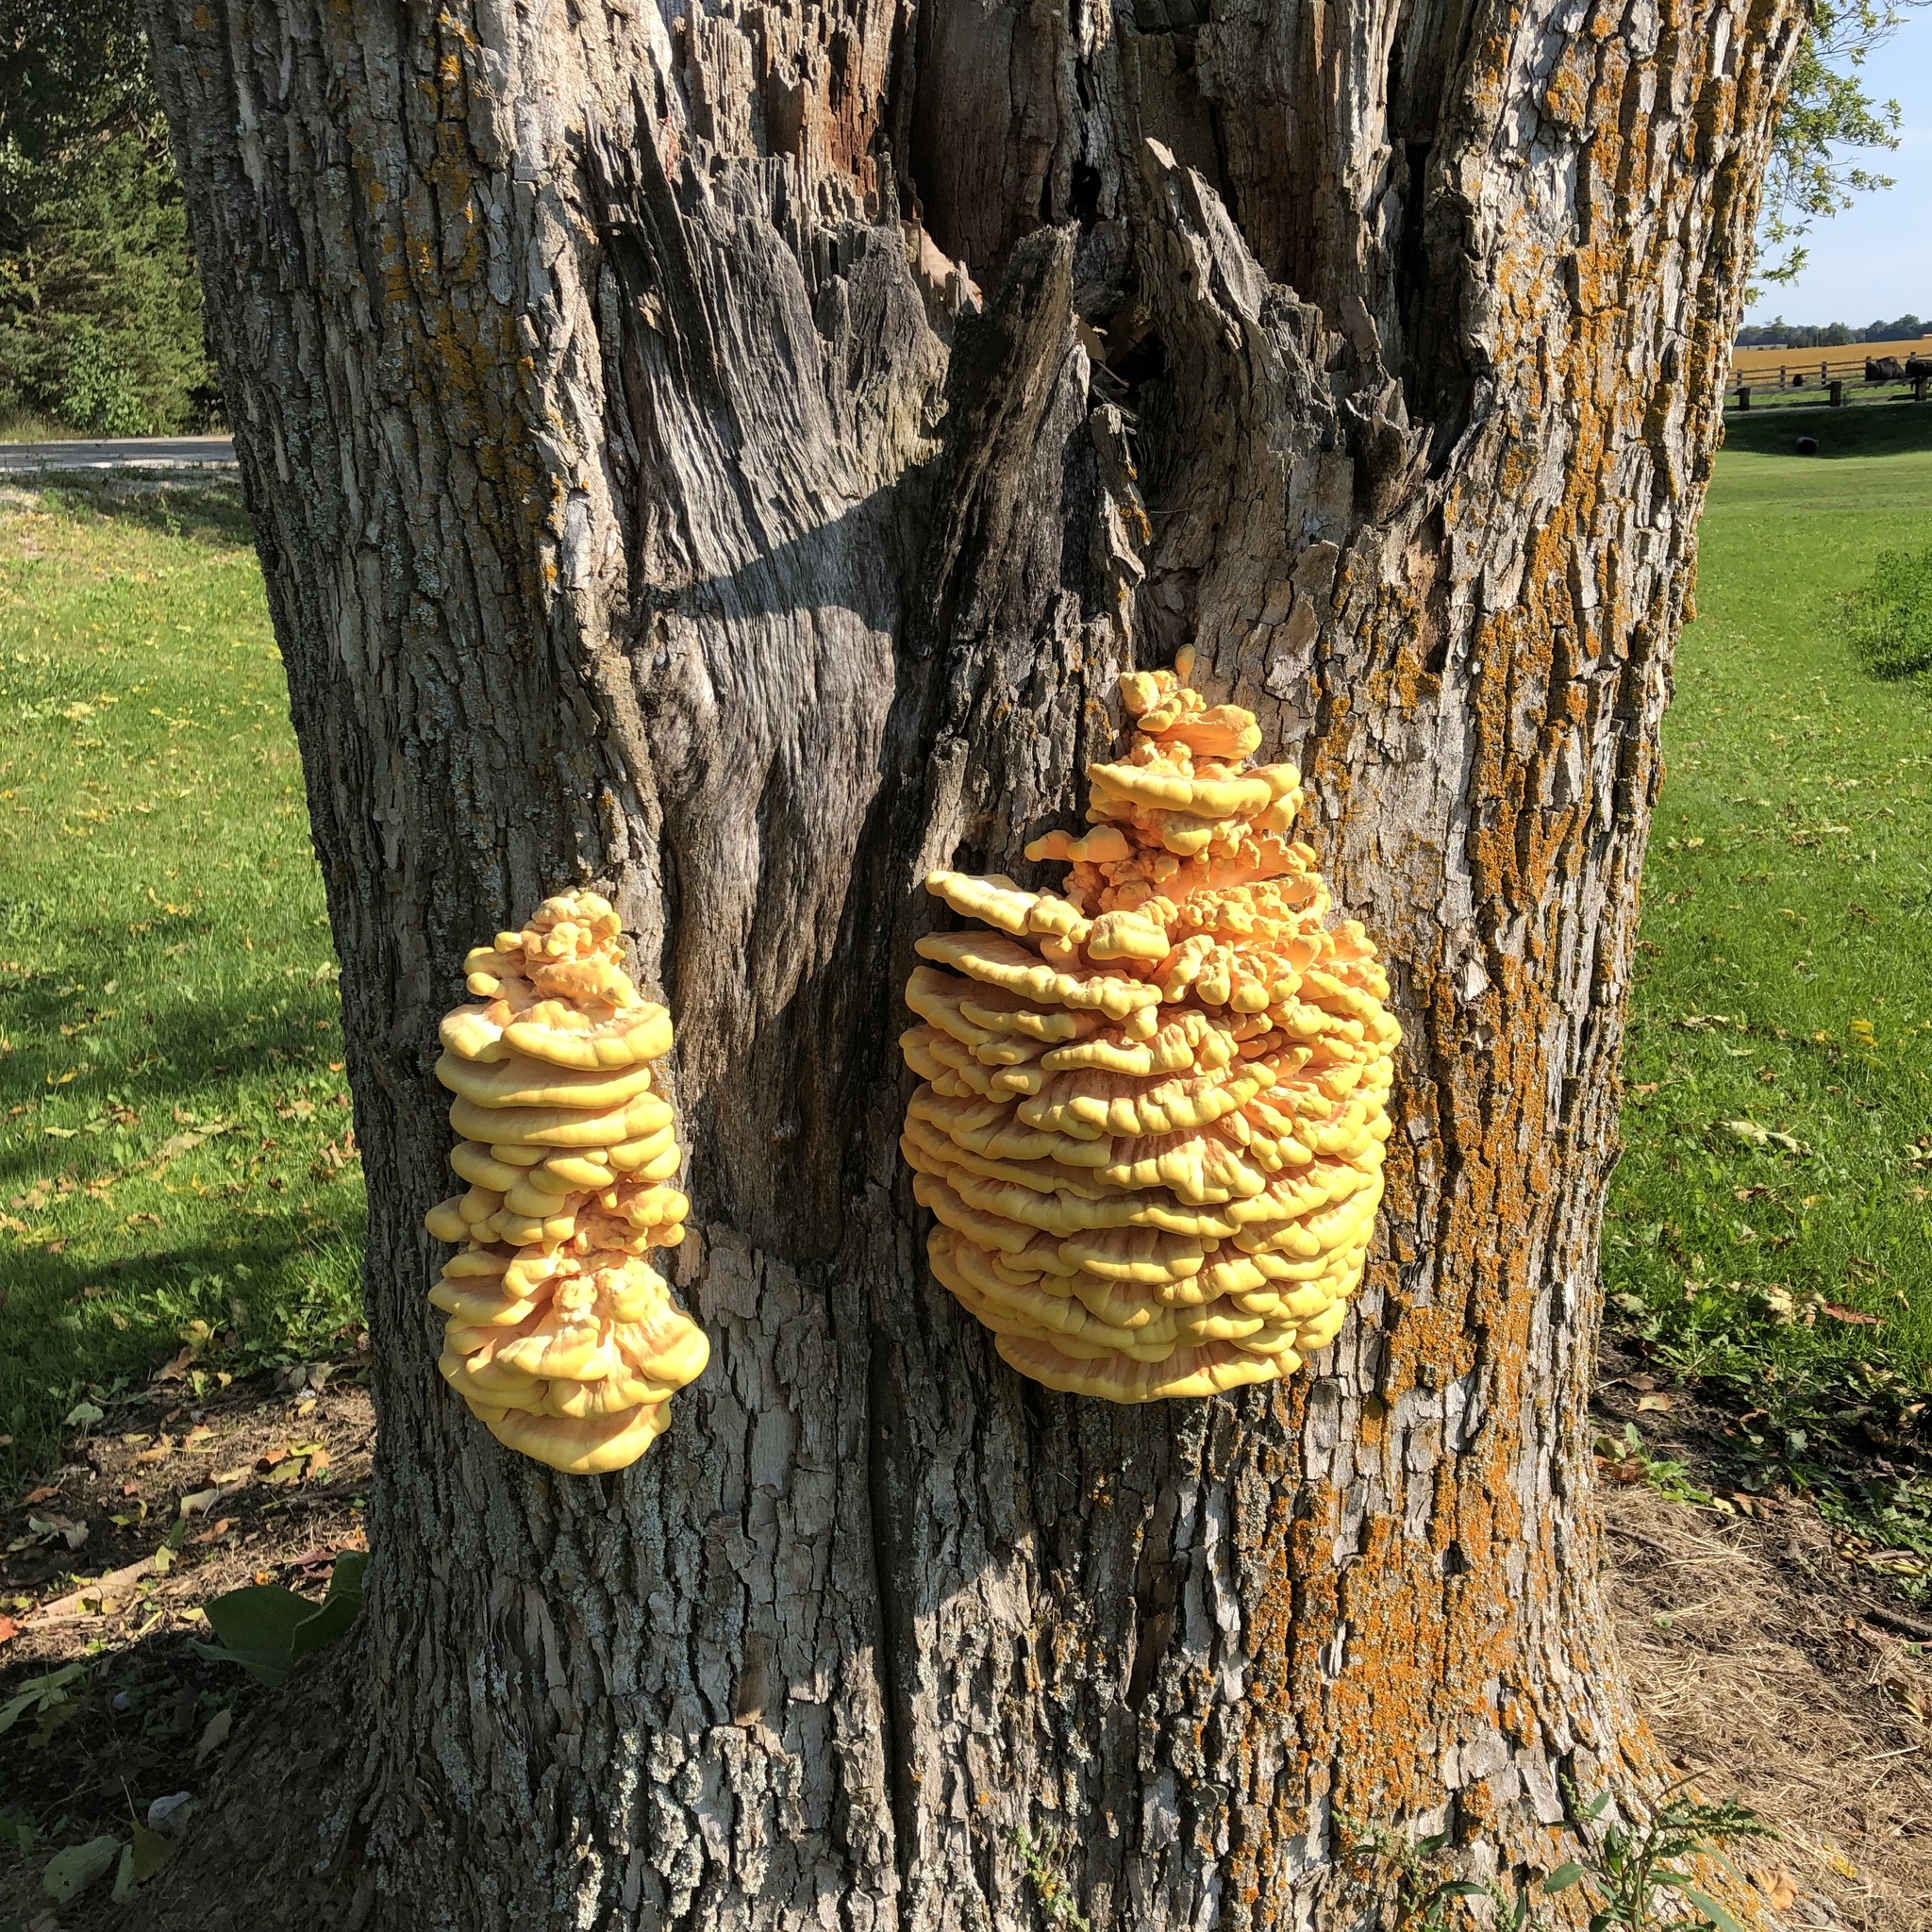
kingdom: Fungi
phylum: Basidiomycota
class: Agaricomycetes
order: Polyporales
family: Laetiporaceae
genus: Laetiporus
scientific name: Laetiporus sulphureus
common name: Chicken of the woods
